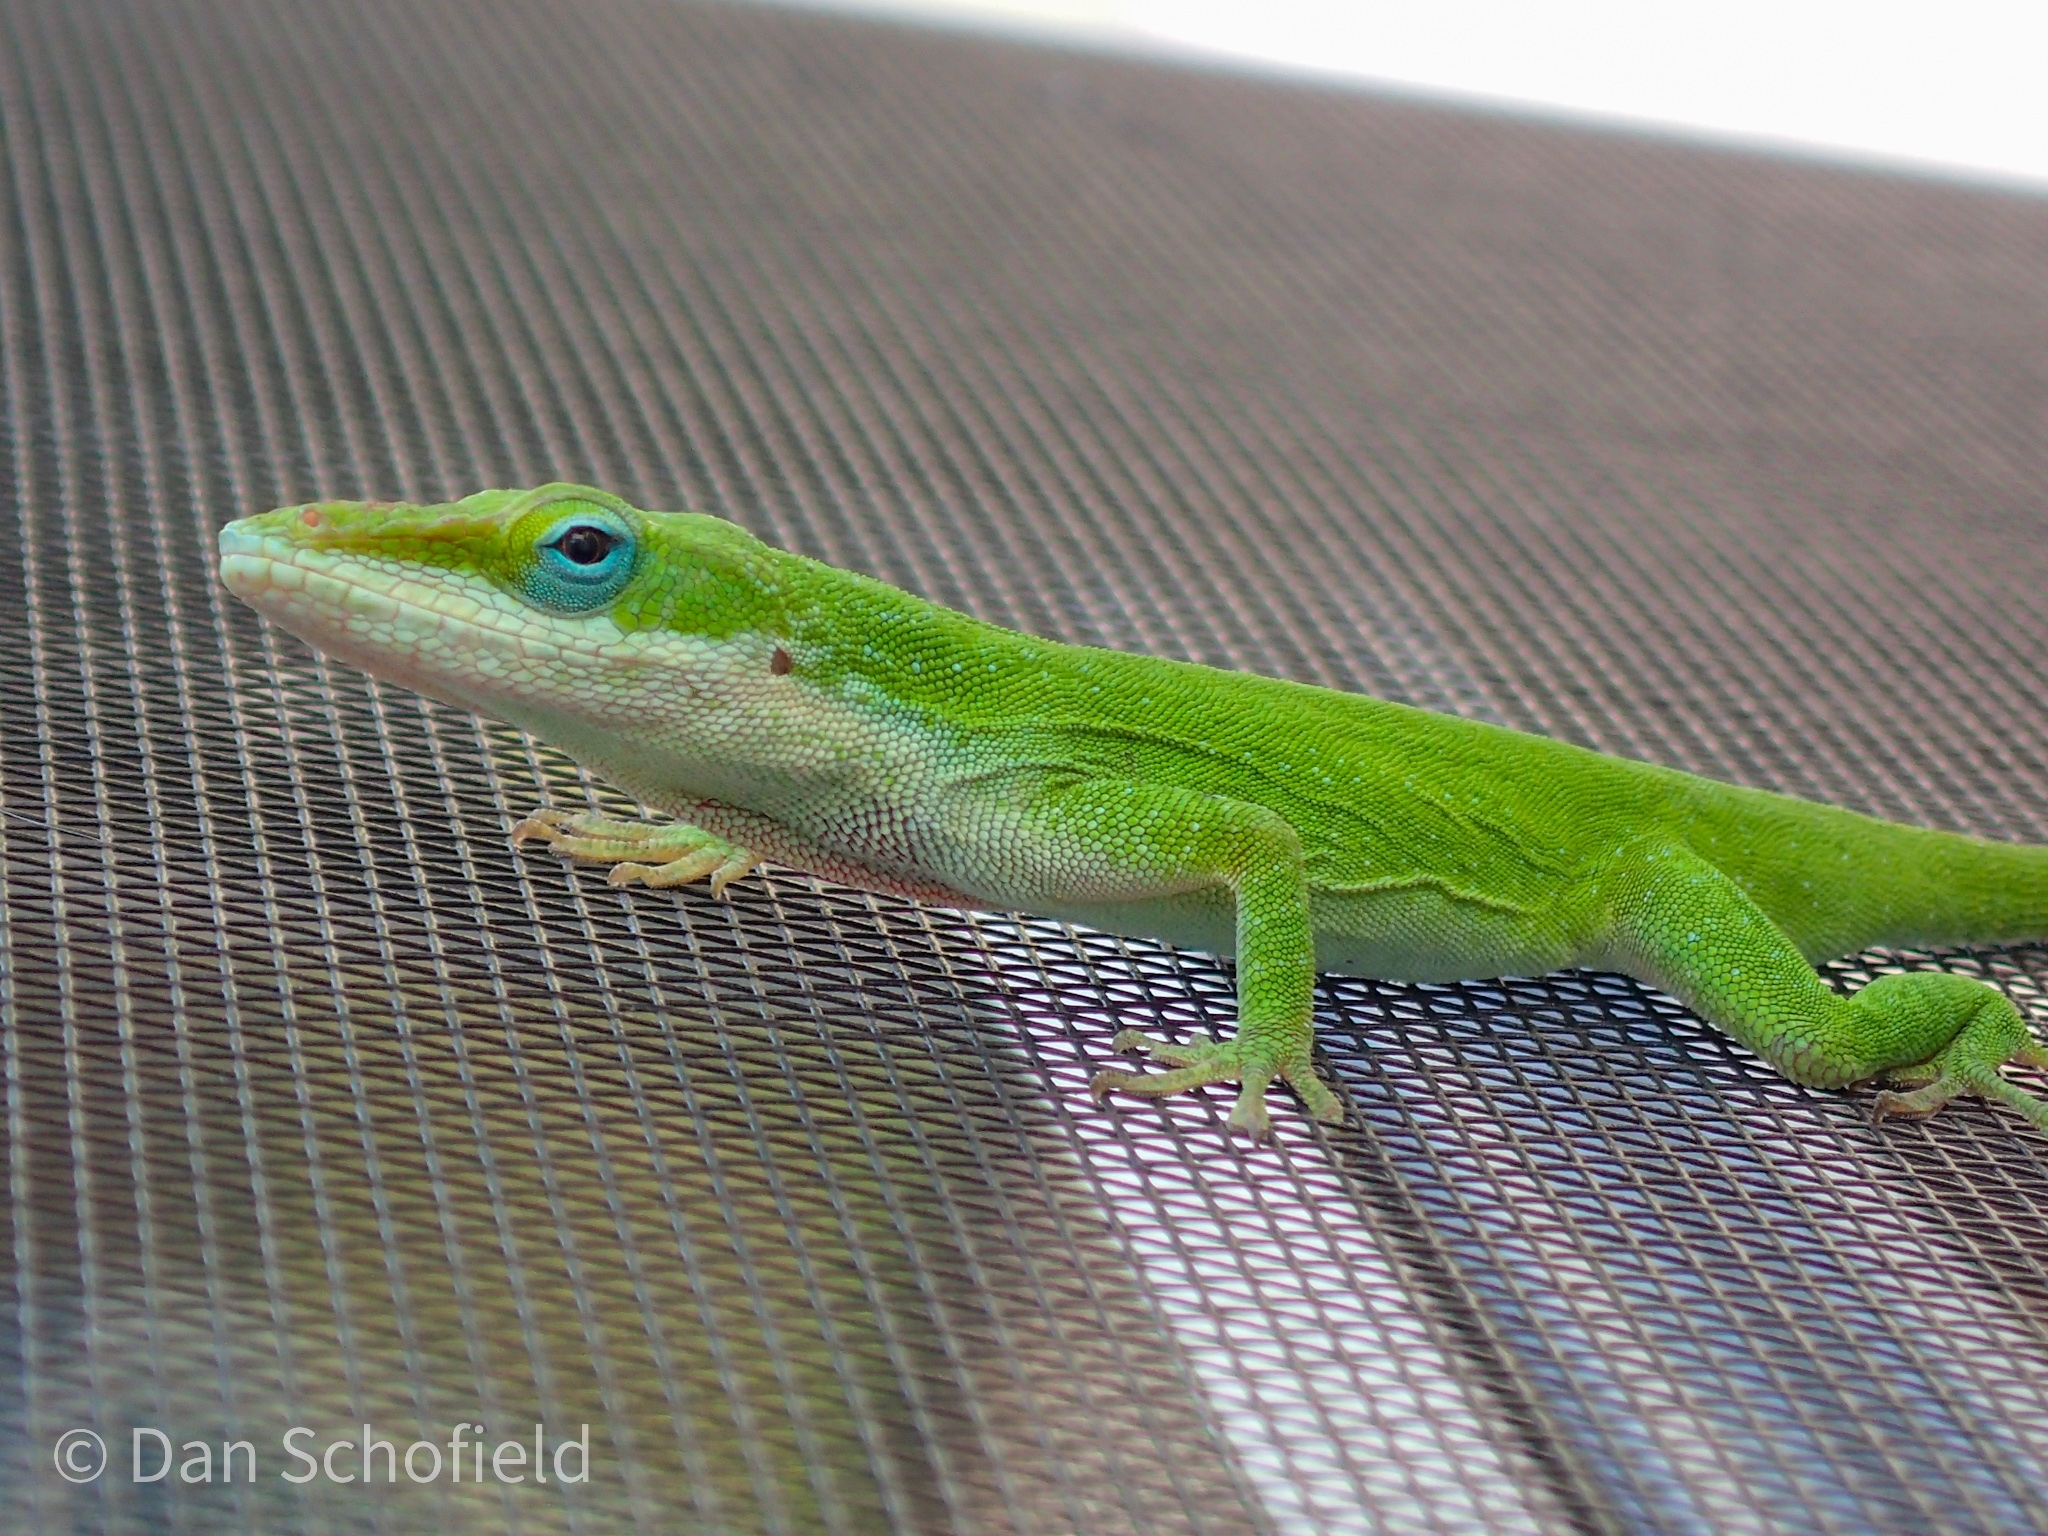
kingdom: Animalia
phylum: Chordata
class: Squamata
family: Dactyloidae
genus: Anolis
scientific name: Anolis carolinensis
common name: Green anole
